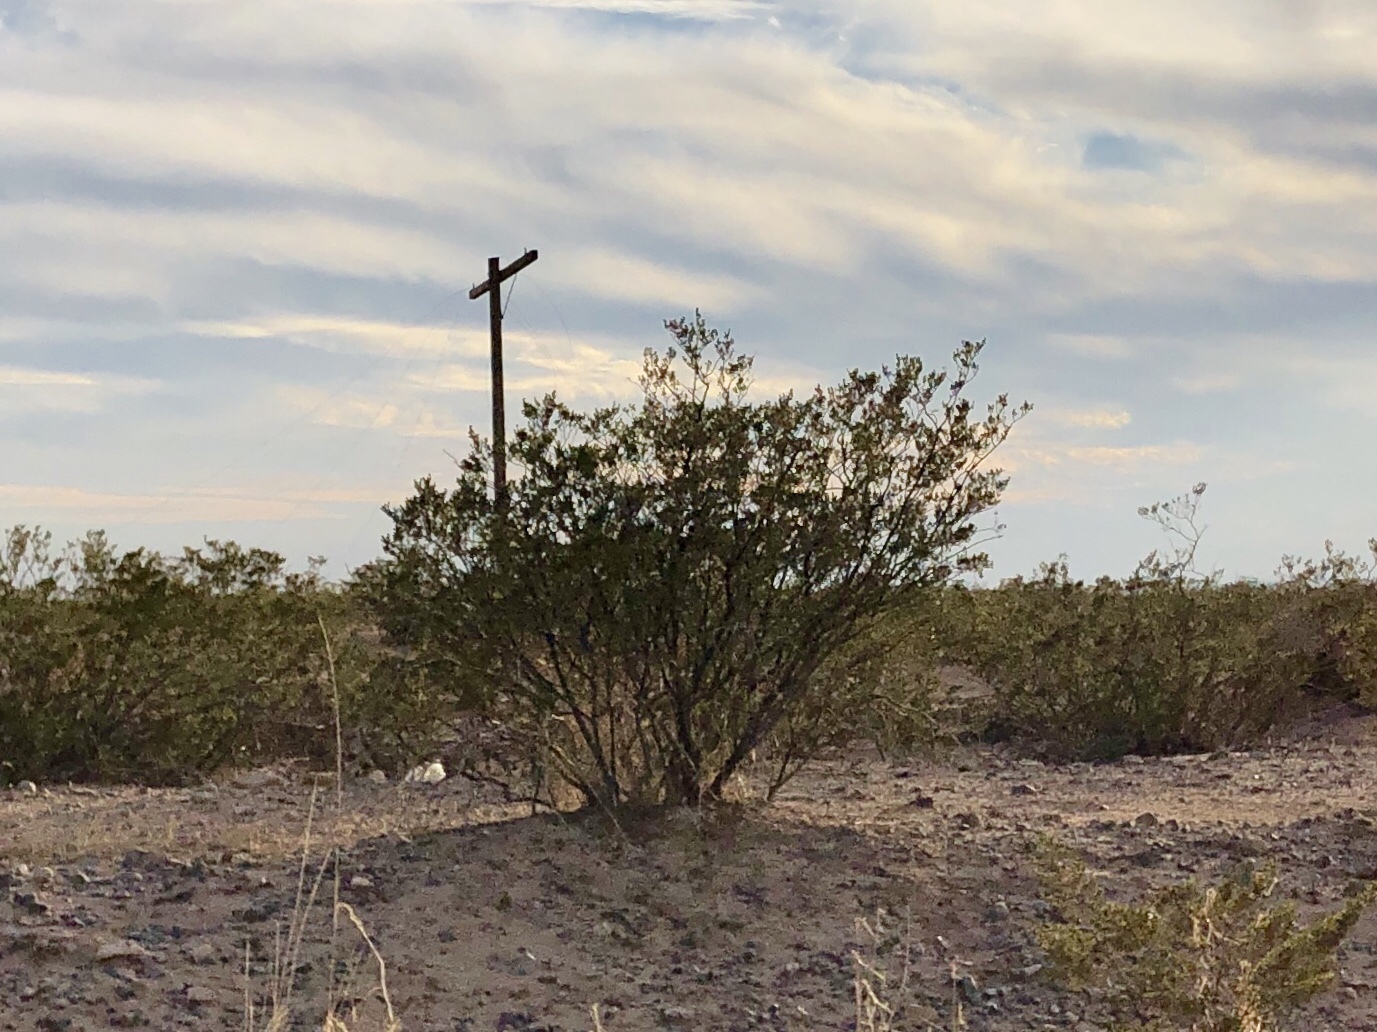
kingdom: Plantae
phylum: Tracheophyta
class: Magnoliopsida
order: Zygophyllales
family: Zygophyllaceae
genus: Larrea
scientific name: Larrea tridentata
